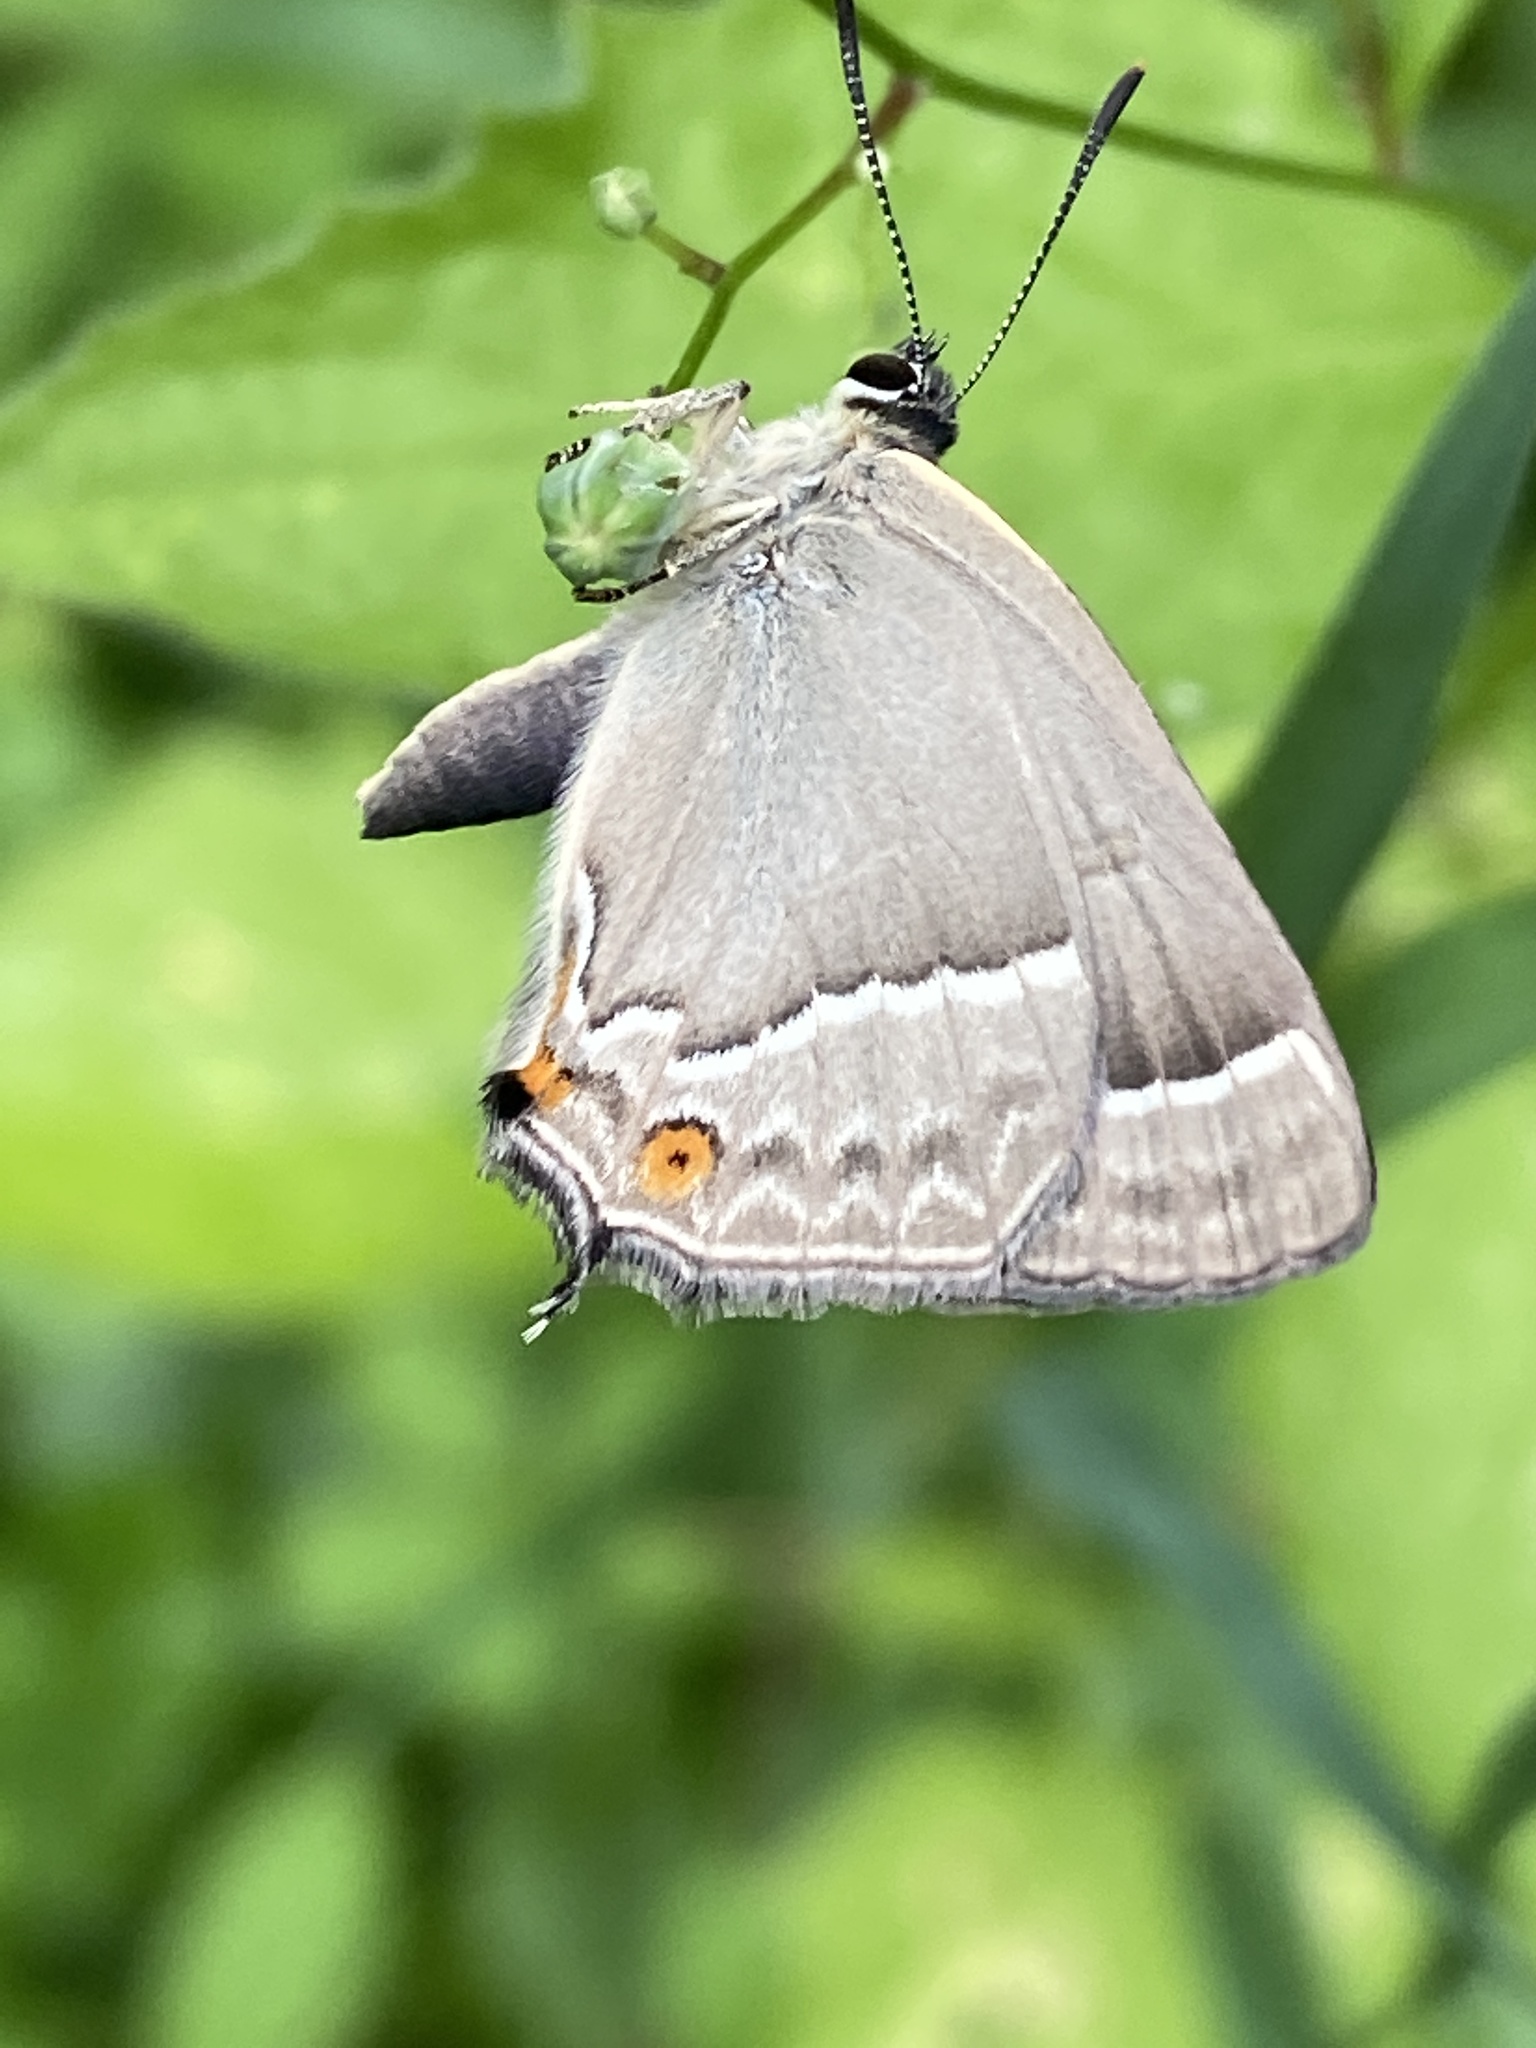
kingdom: Animalia
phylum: Arthropoda
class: Insecta
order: Lepidoptera
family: Lycaenidae
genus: Quercusia
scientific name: Quercusia quercus
